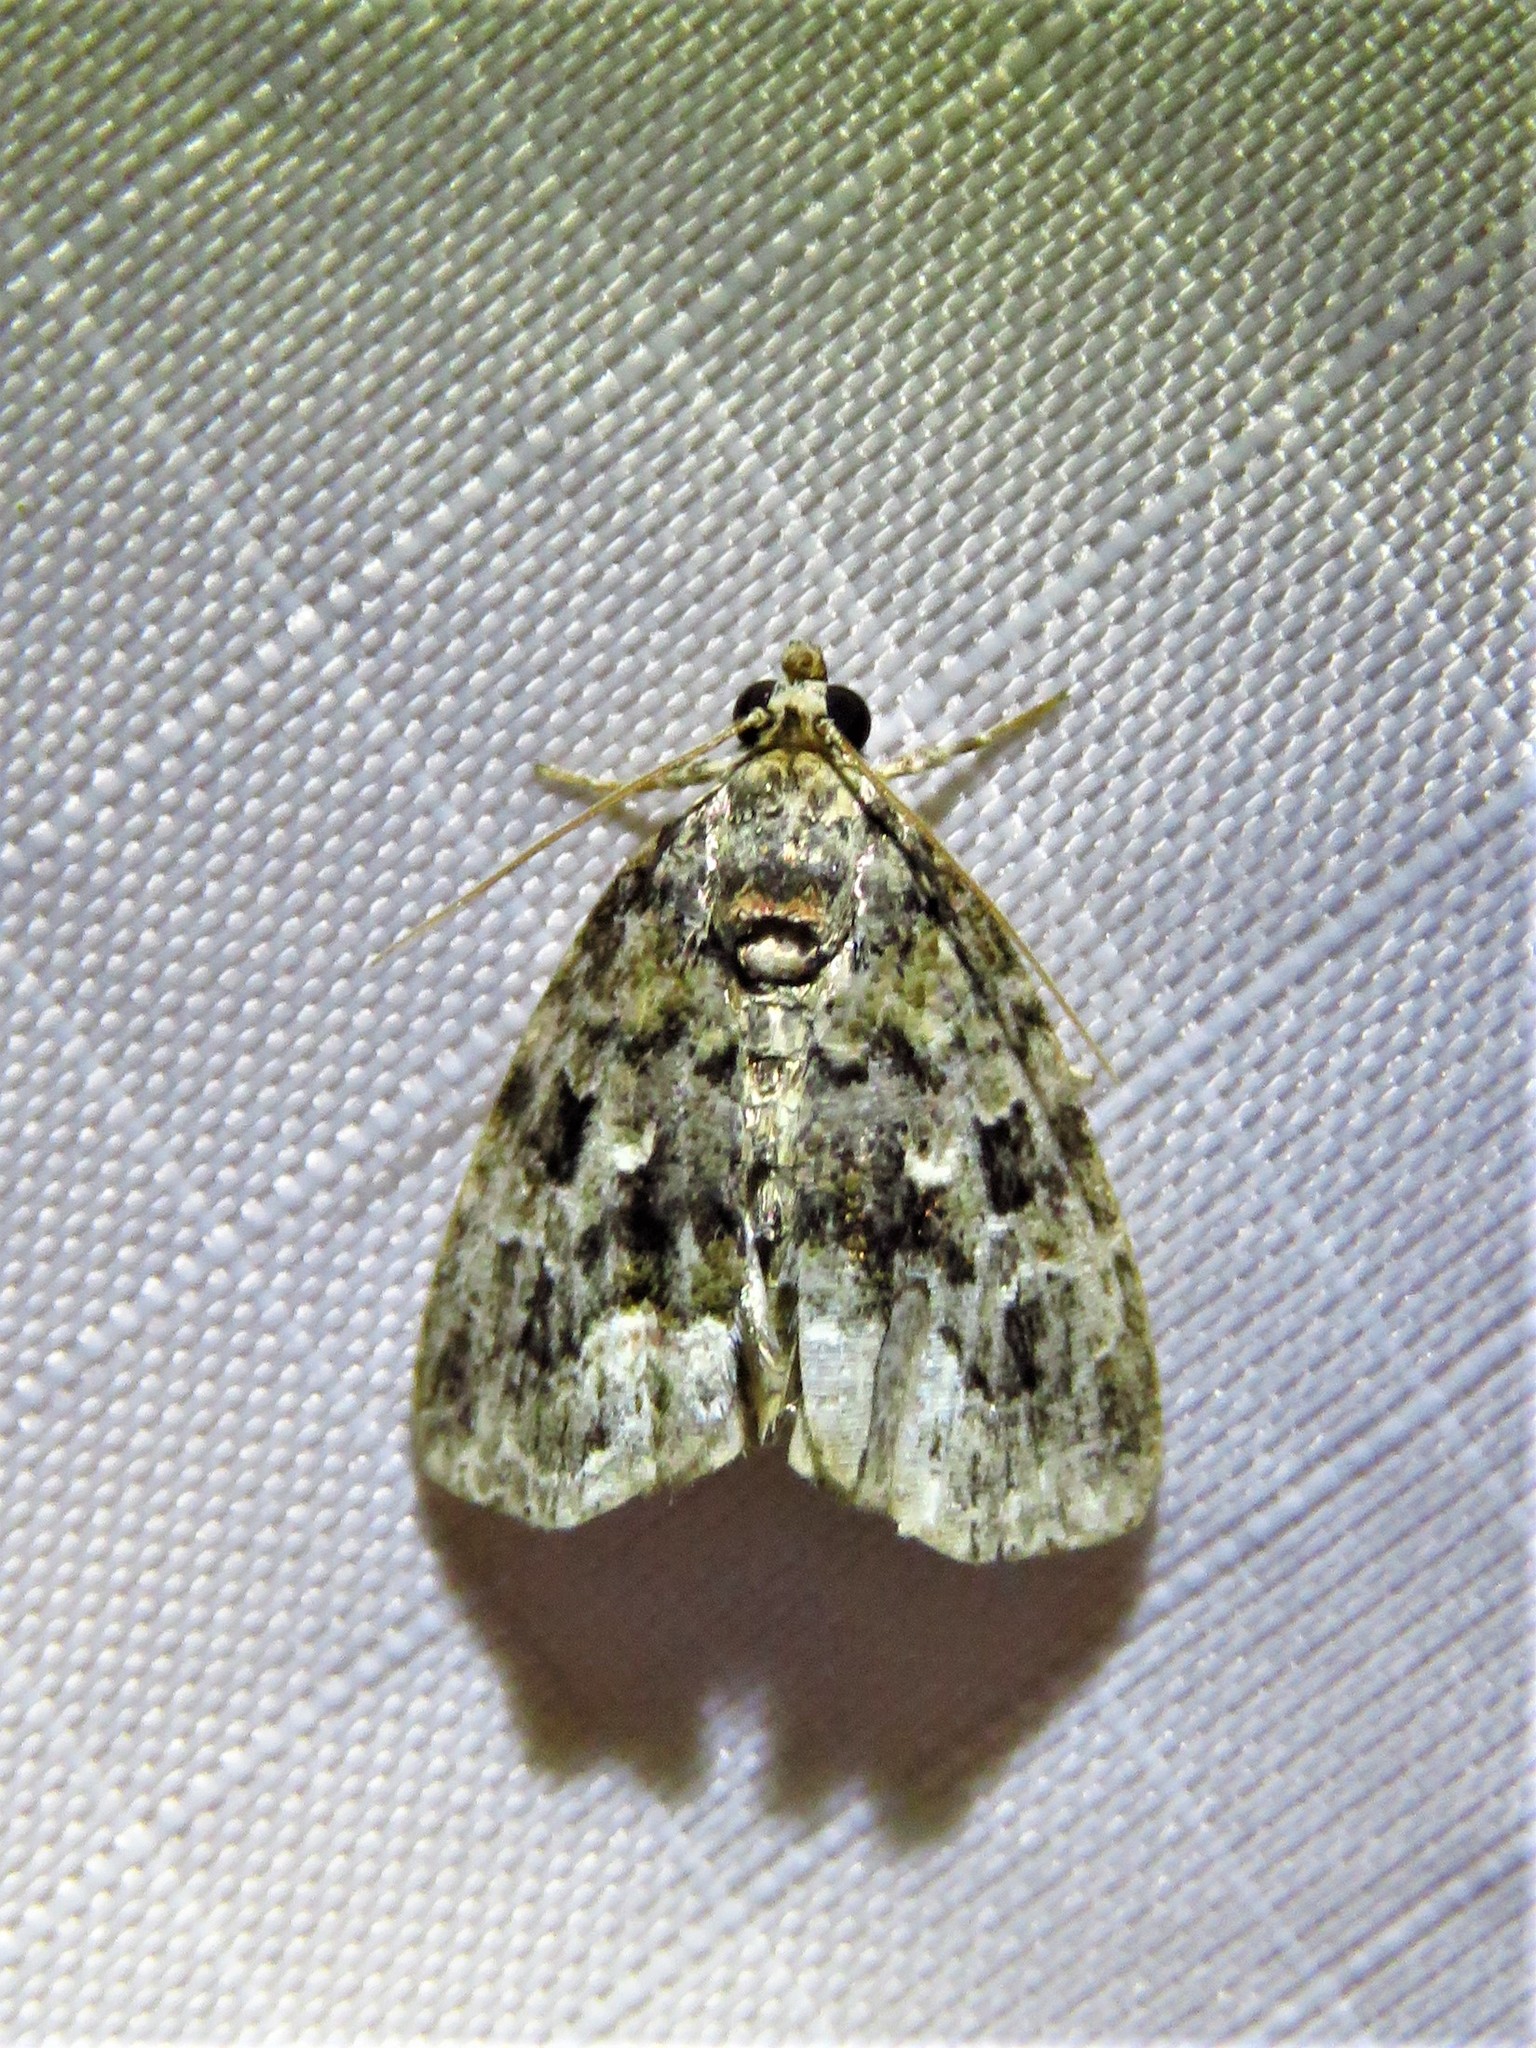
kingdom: Animalia
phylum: Arthropoda
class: Insecta
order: Lepidoptera
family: Noctuidae
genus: Protodeltote
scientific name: Protodeltote muscosula
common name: Large mossy glyph
